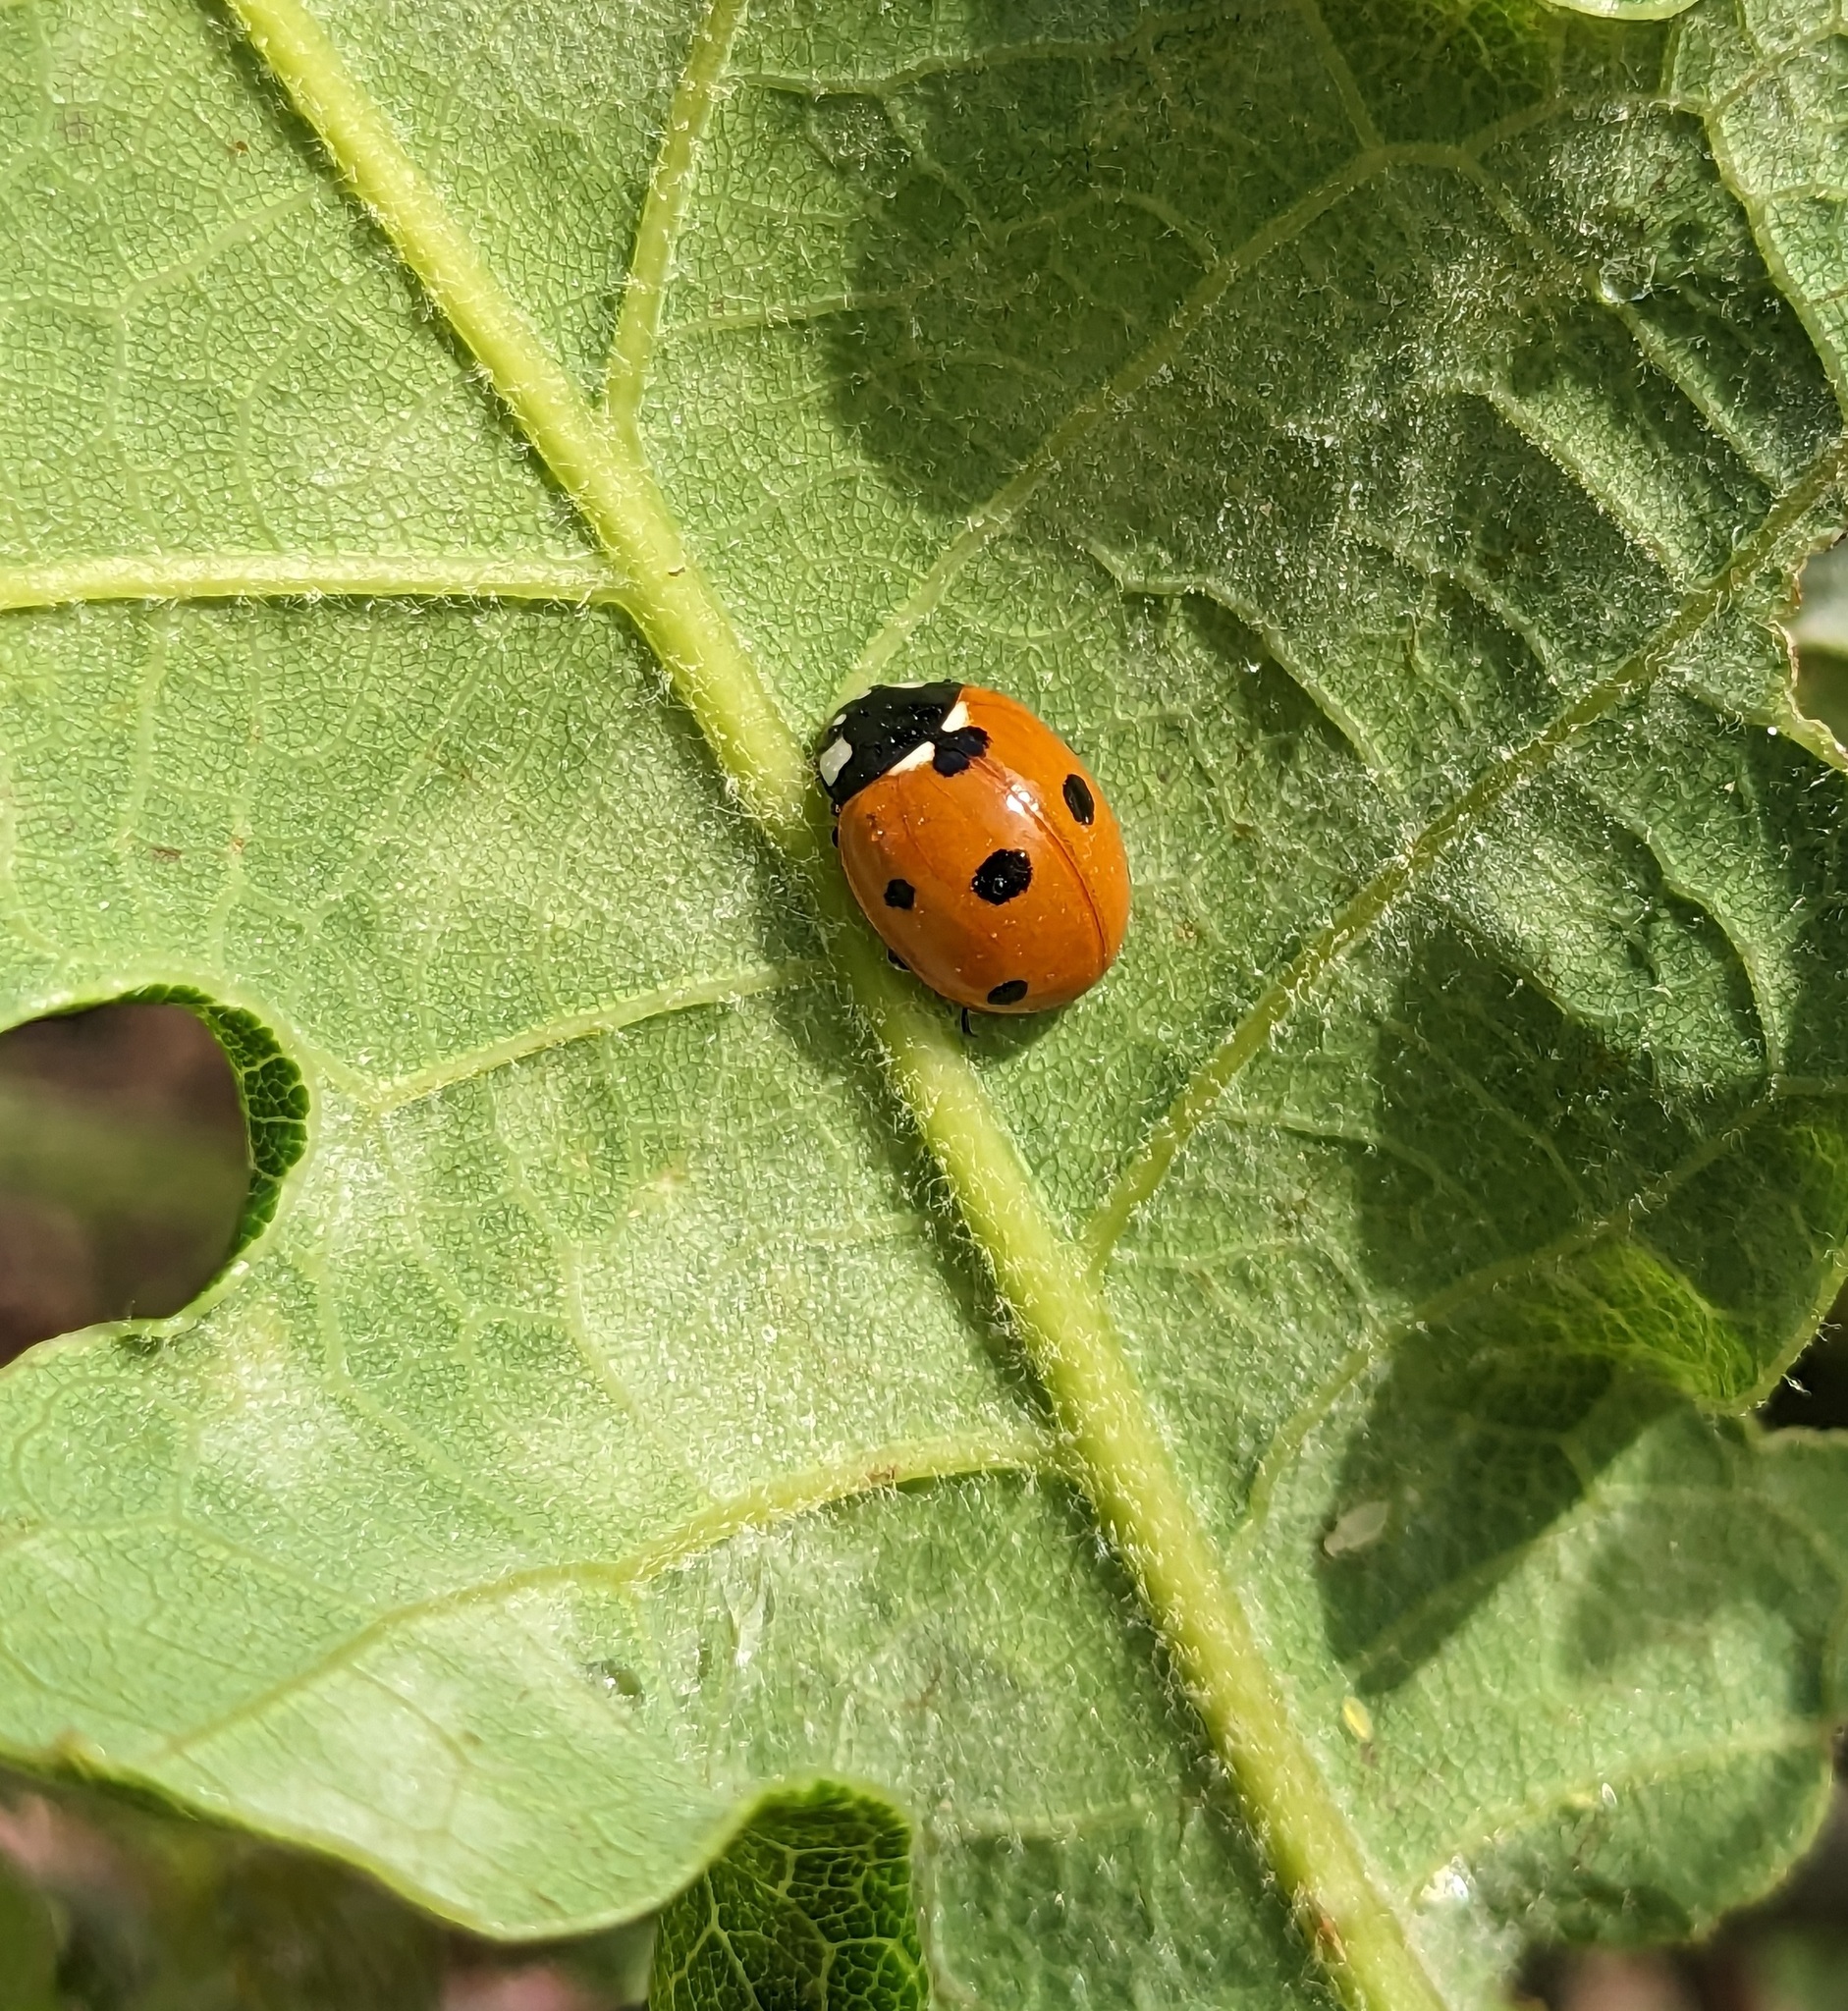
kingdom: Animalia
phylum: Arthropoda
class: Insecta
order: Coleoptera
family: Coccinellidae
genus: Coccinella
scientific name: Coccinella septempunctata
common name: Sevenspotted lady beetle
